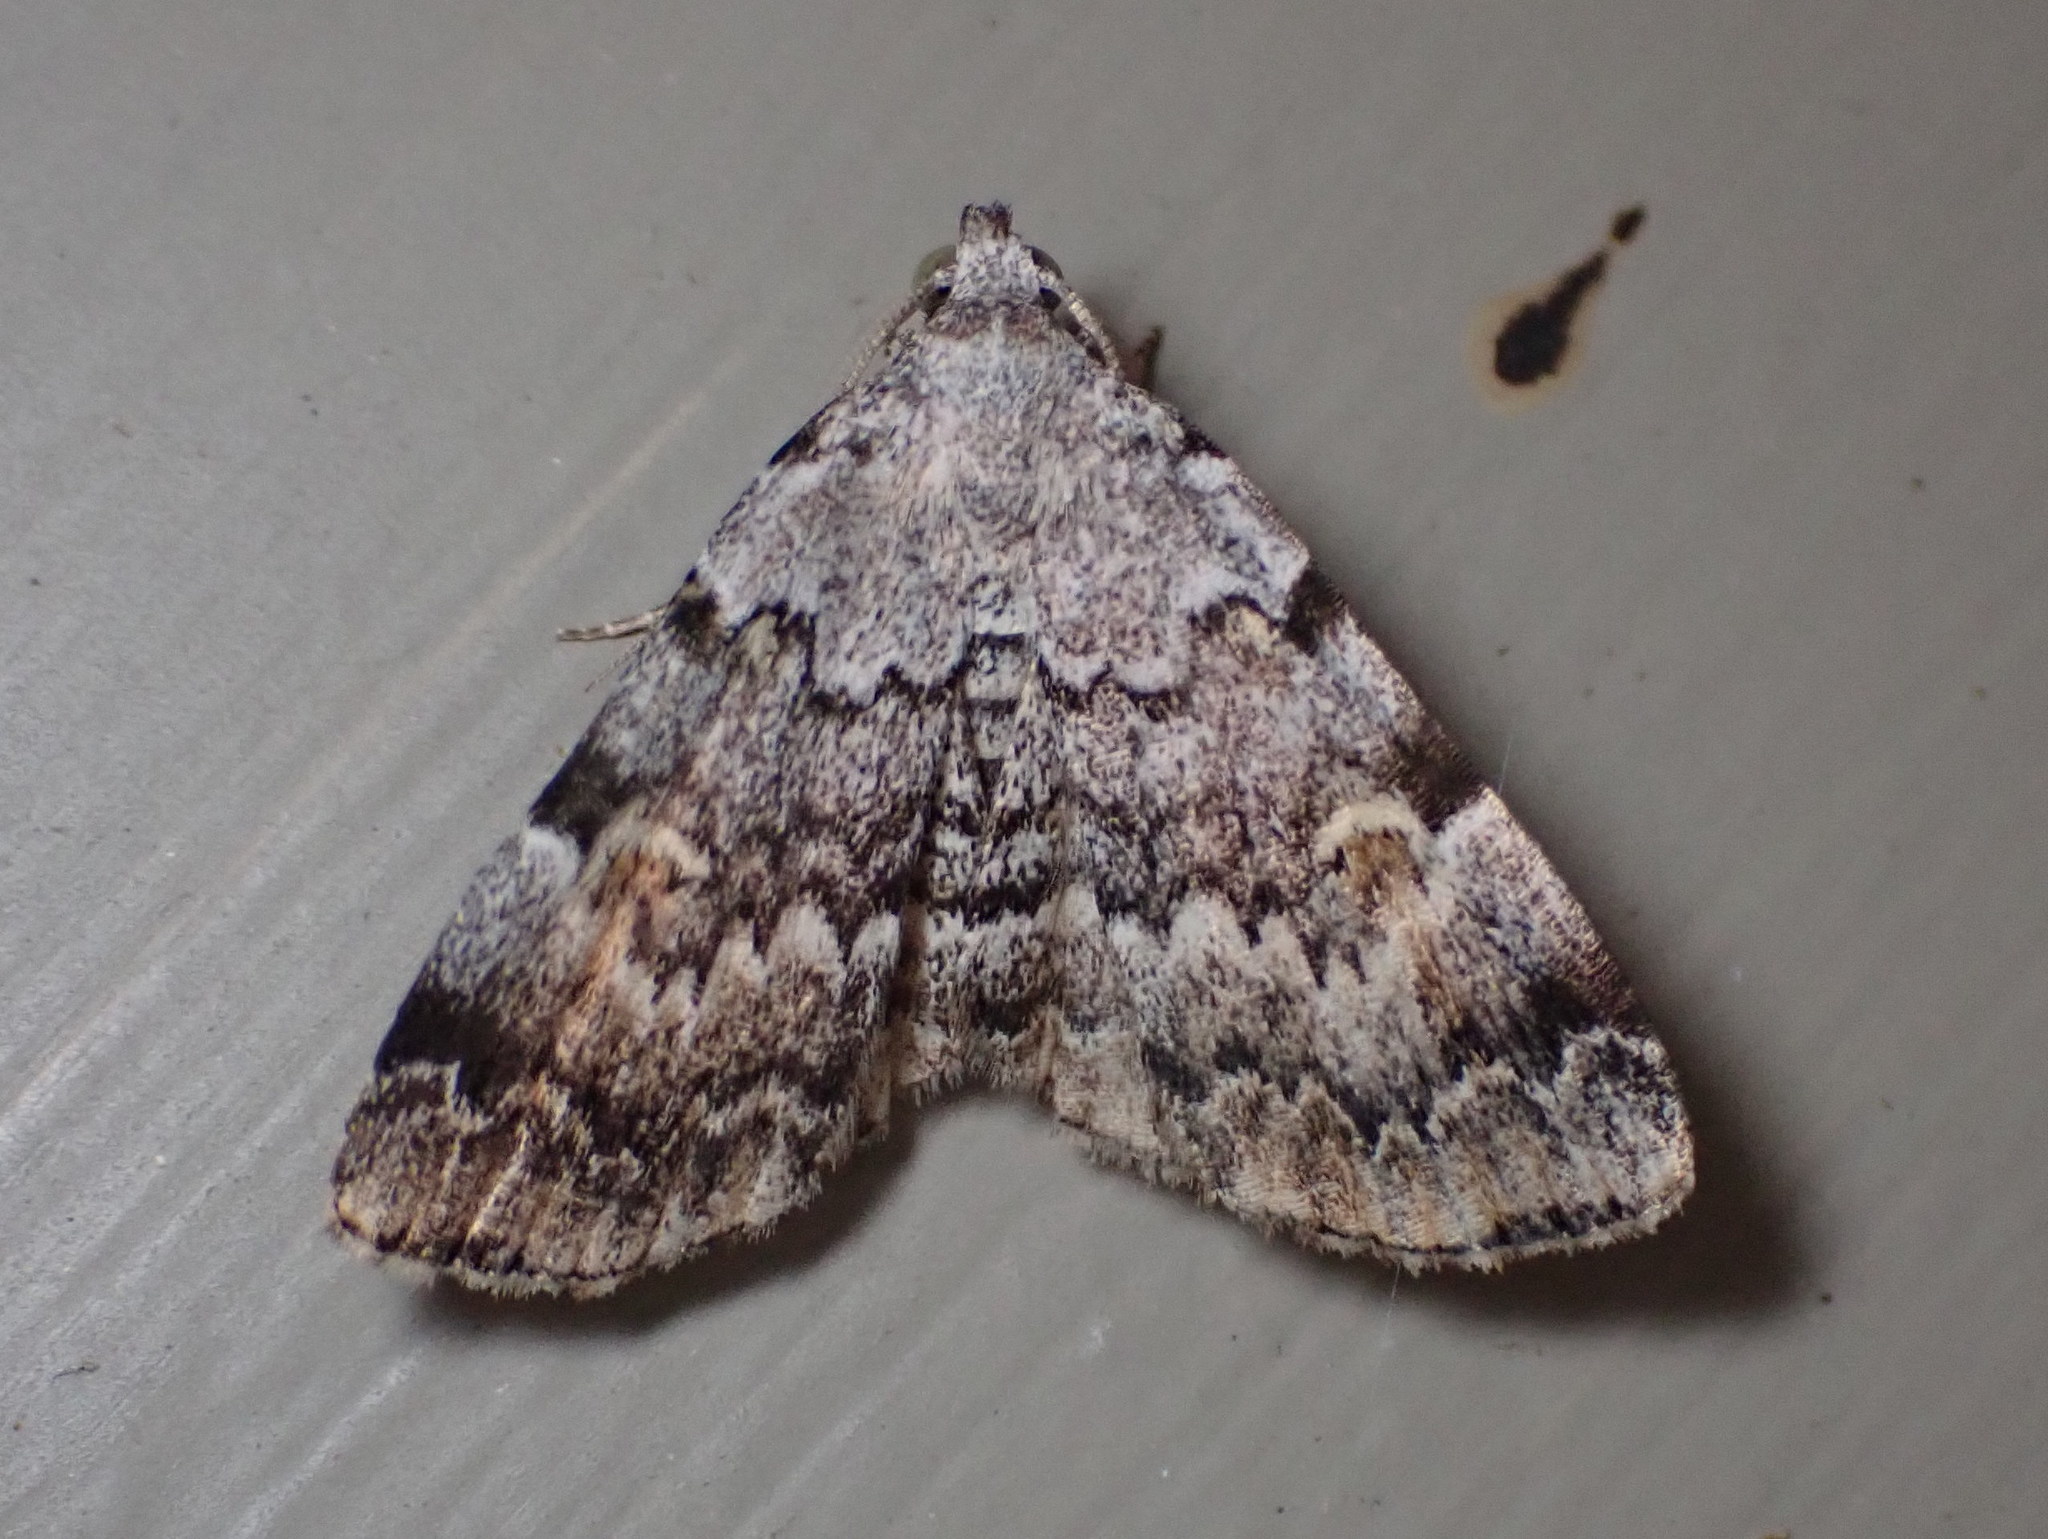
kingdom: Animalia
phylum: Arthropoda
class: Insecta
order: Lepidoptera
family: Erebidae
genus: Idia
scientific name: Idia americalis
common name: American idia moth
